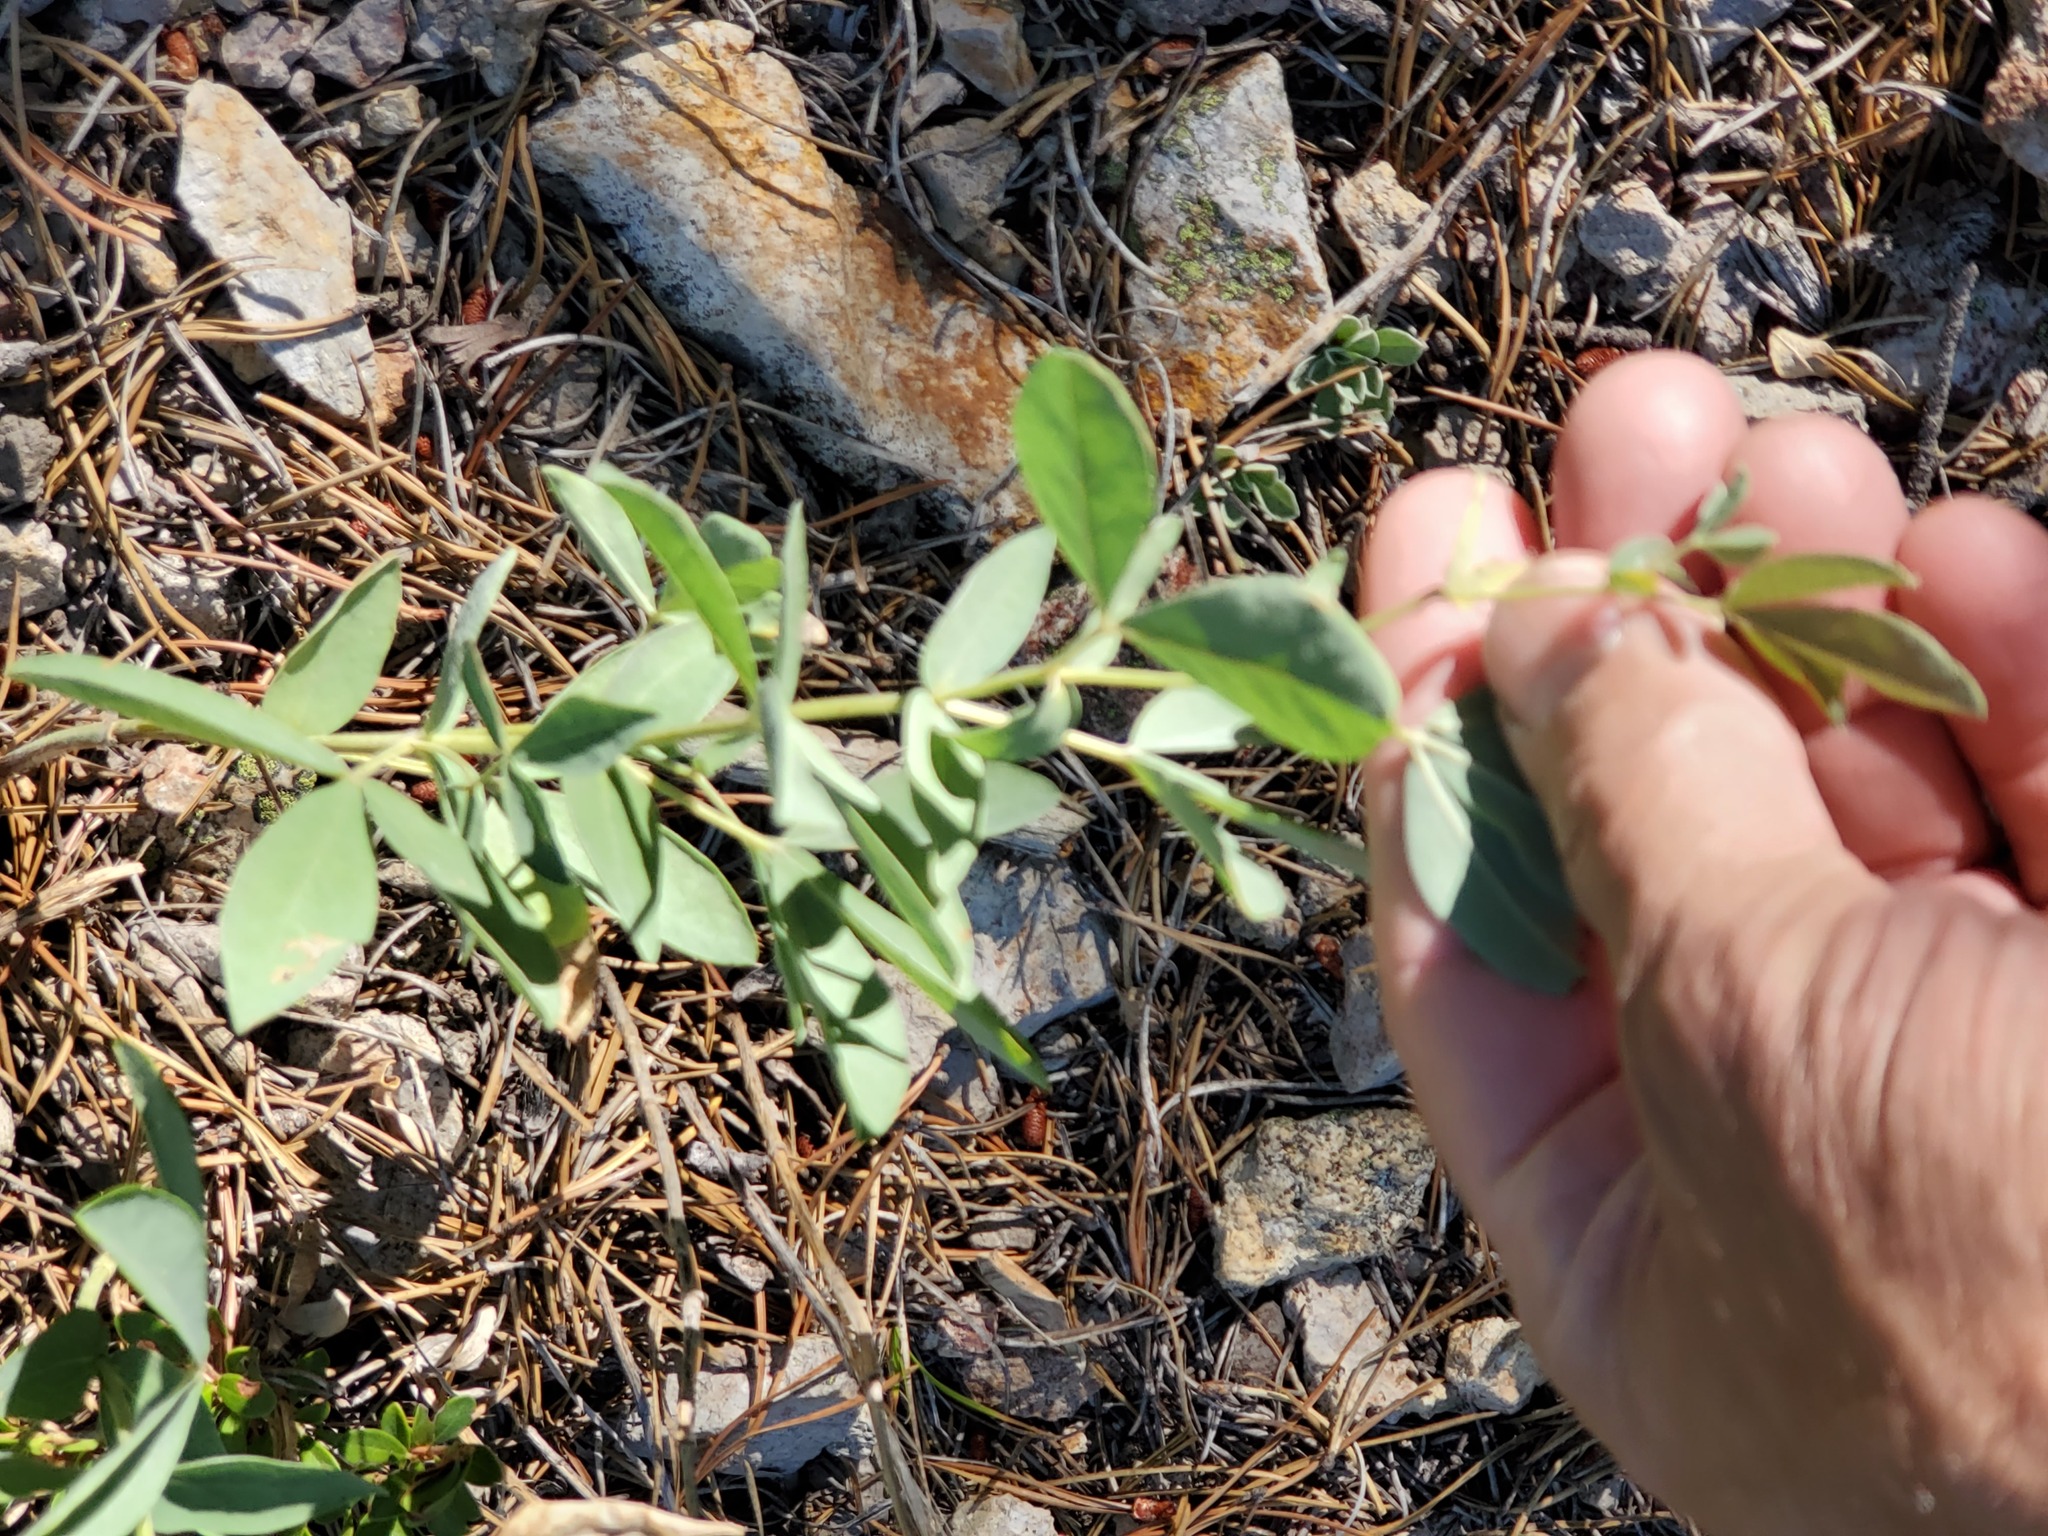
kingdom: Plantae
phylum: Tracheophyta
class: Magnoliopsida
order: Fabales
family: Fabaceae
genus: Thermopsis
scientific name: Thermopsis rhombifolia
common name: Circle-pod-pea
